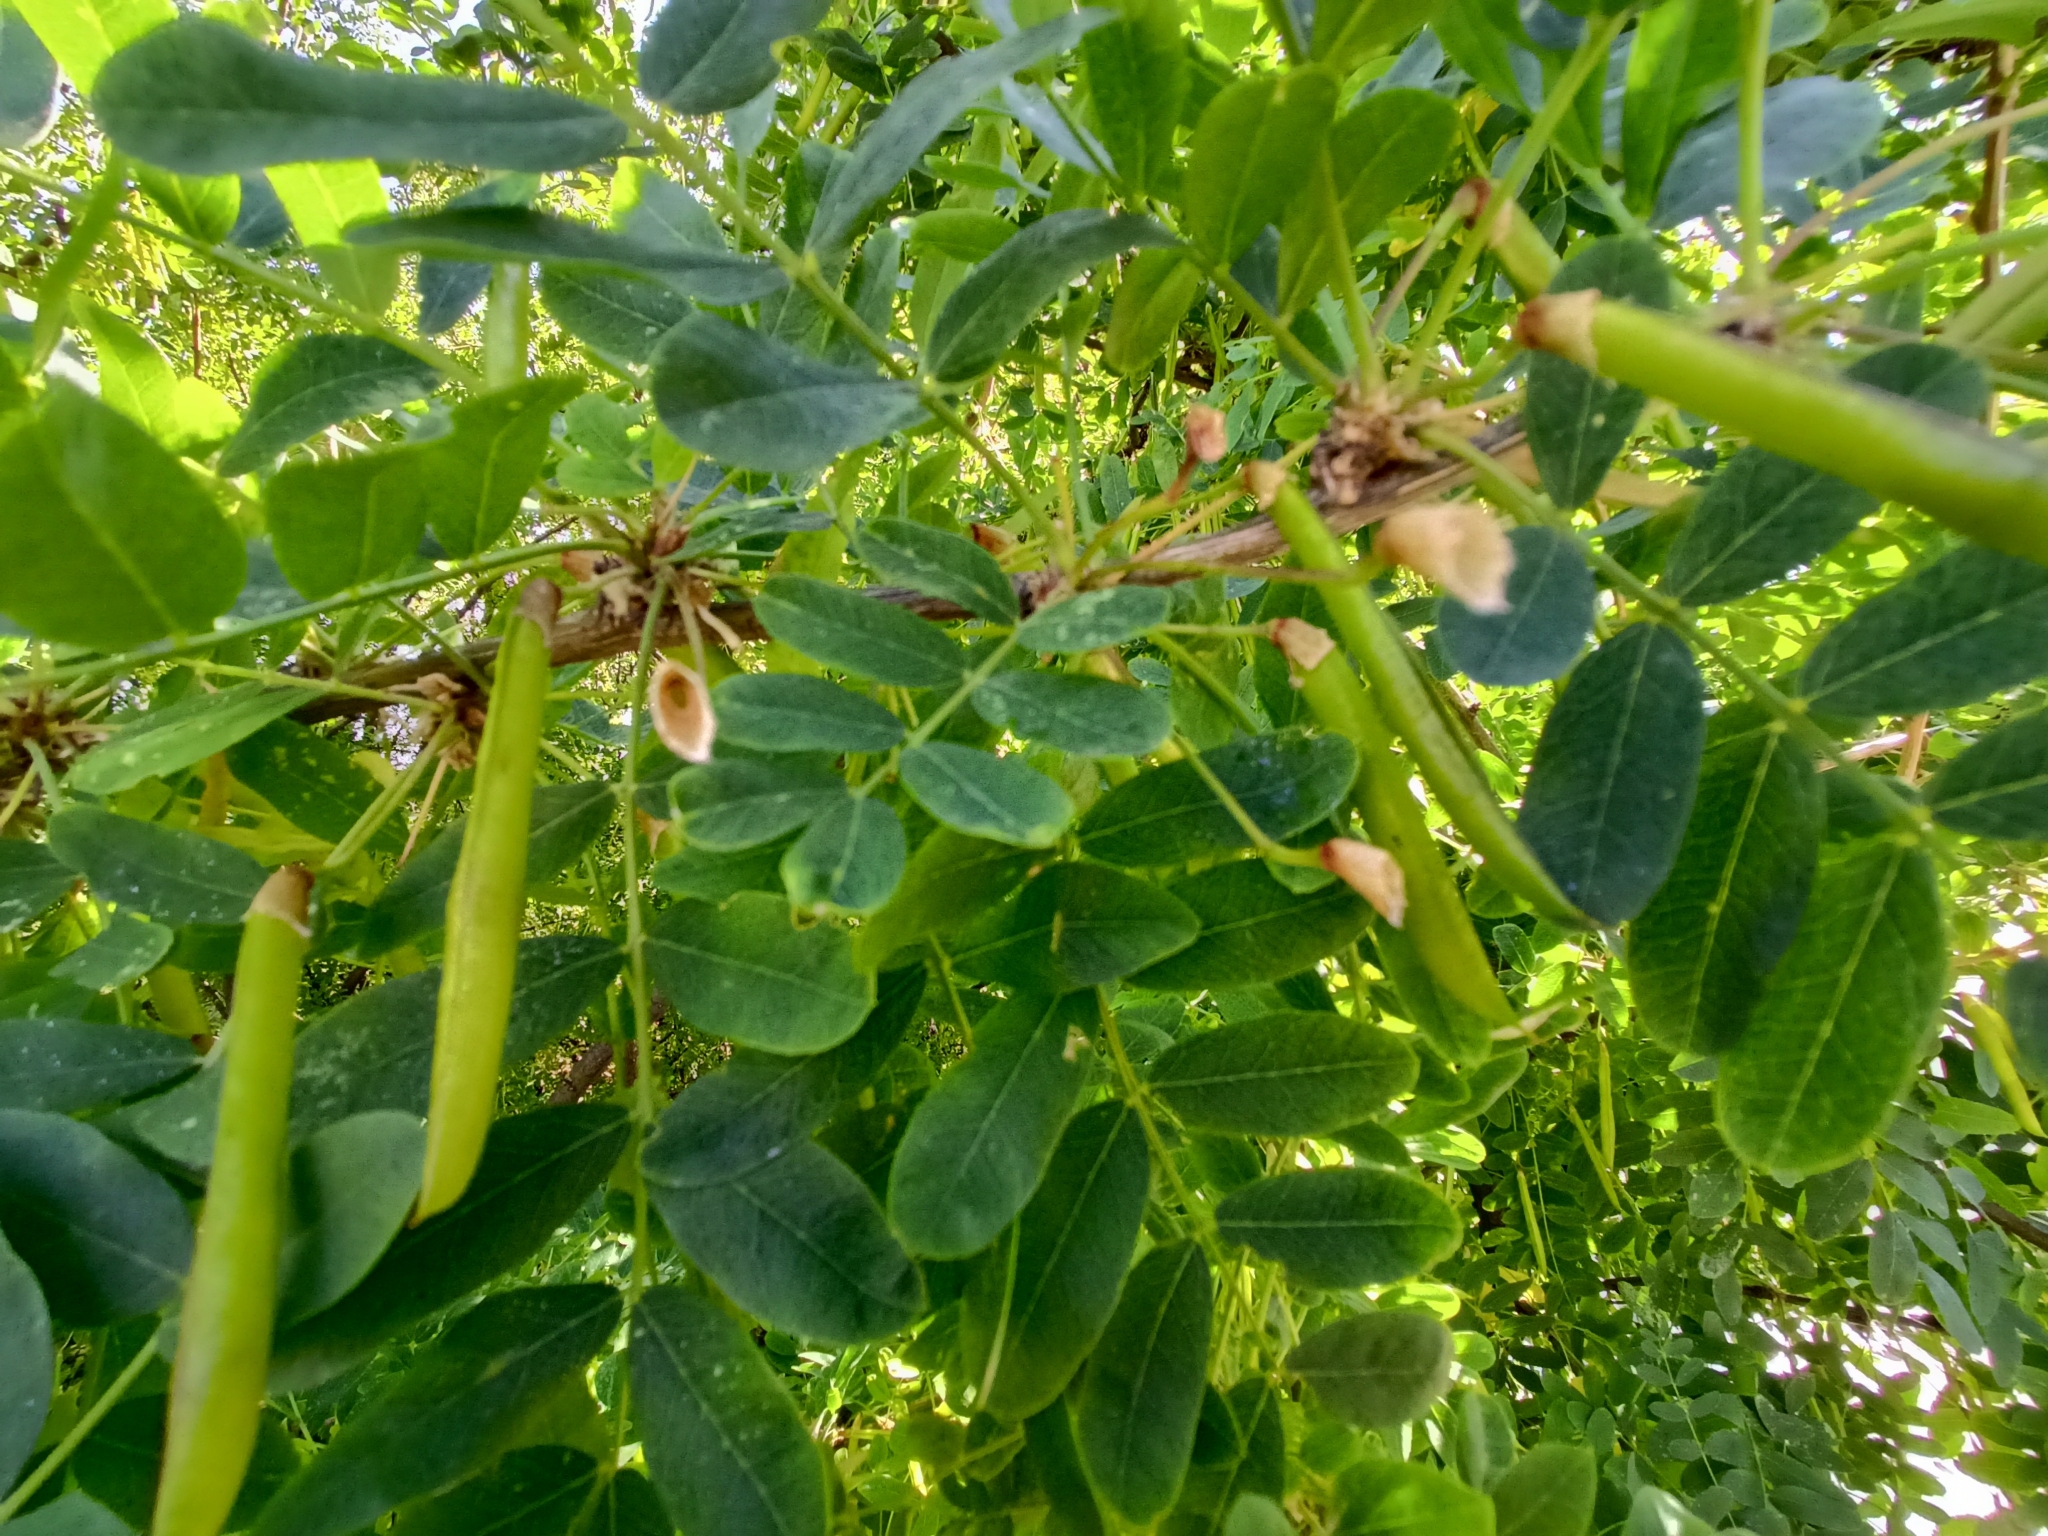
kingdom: Plantae
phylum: Tracheophyta
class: Magnoliopsida
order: Fabales
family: Fabaceae
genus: Caragana
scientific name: Caragana arborescens
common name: Siberian peashrub
